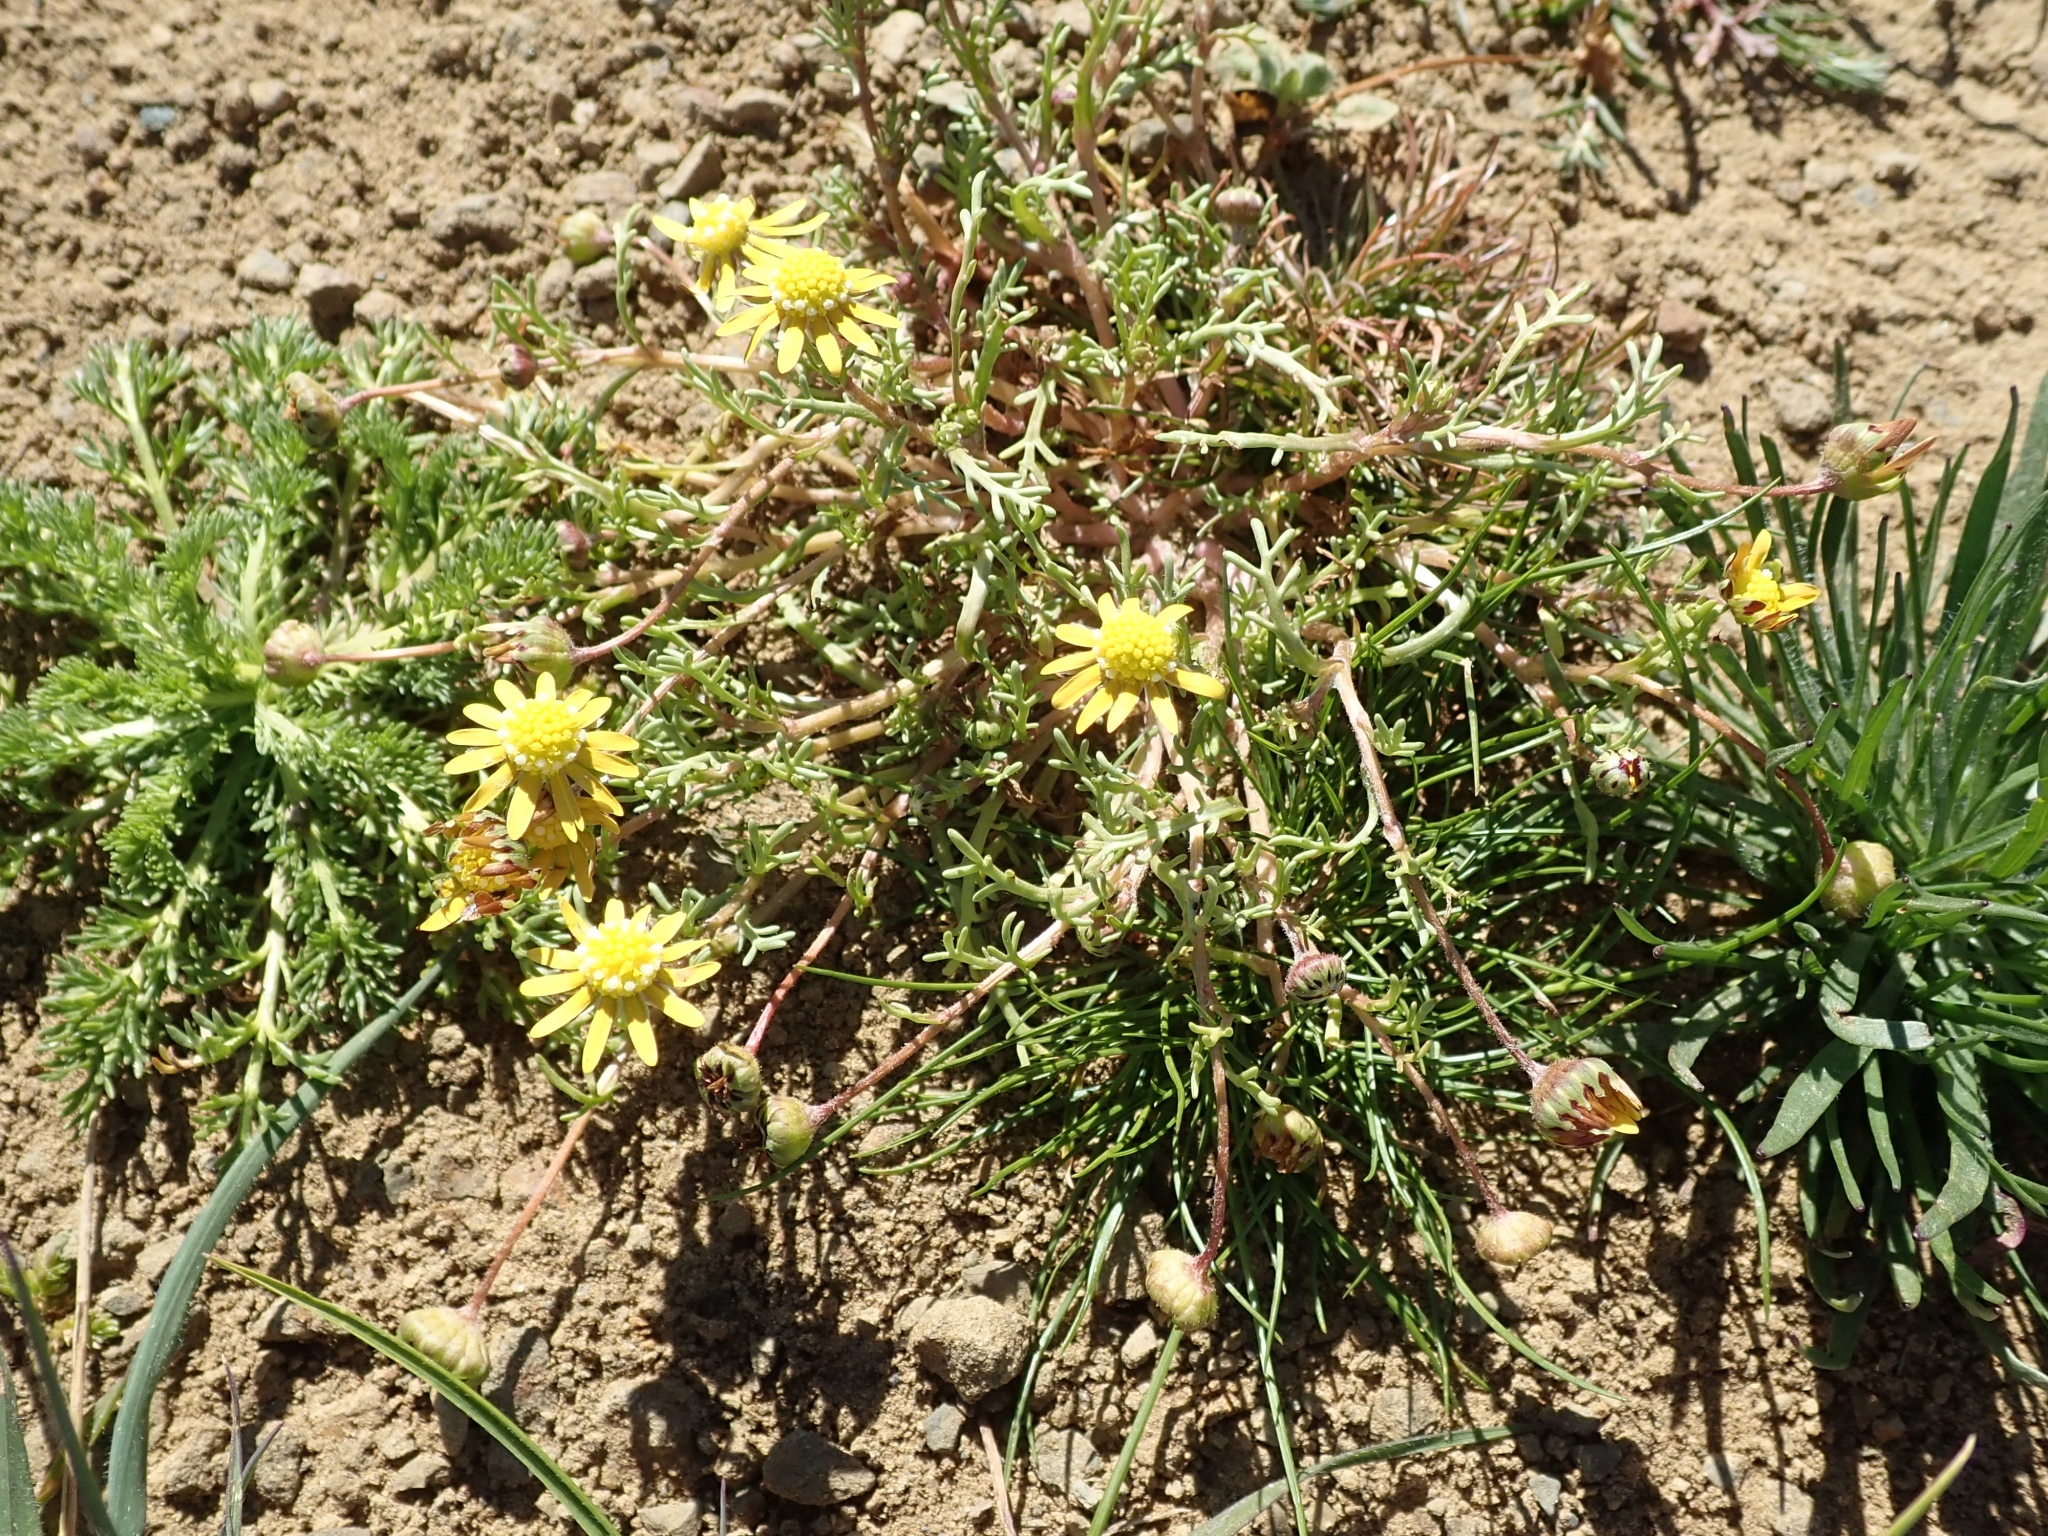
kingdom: Plantae
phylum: Tracheophyta
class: Magnoliopsida
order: Asterales
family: Asteraceae
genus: Blennosperma
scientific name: Blennosperma nanum
